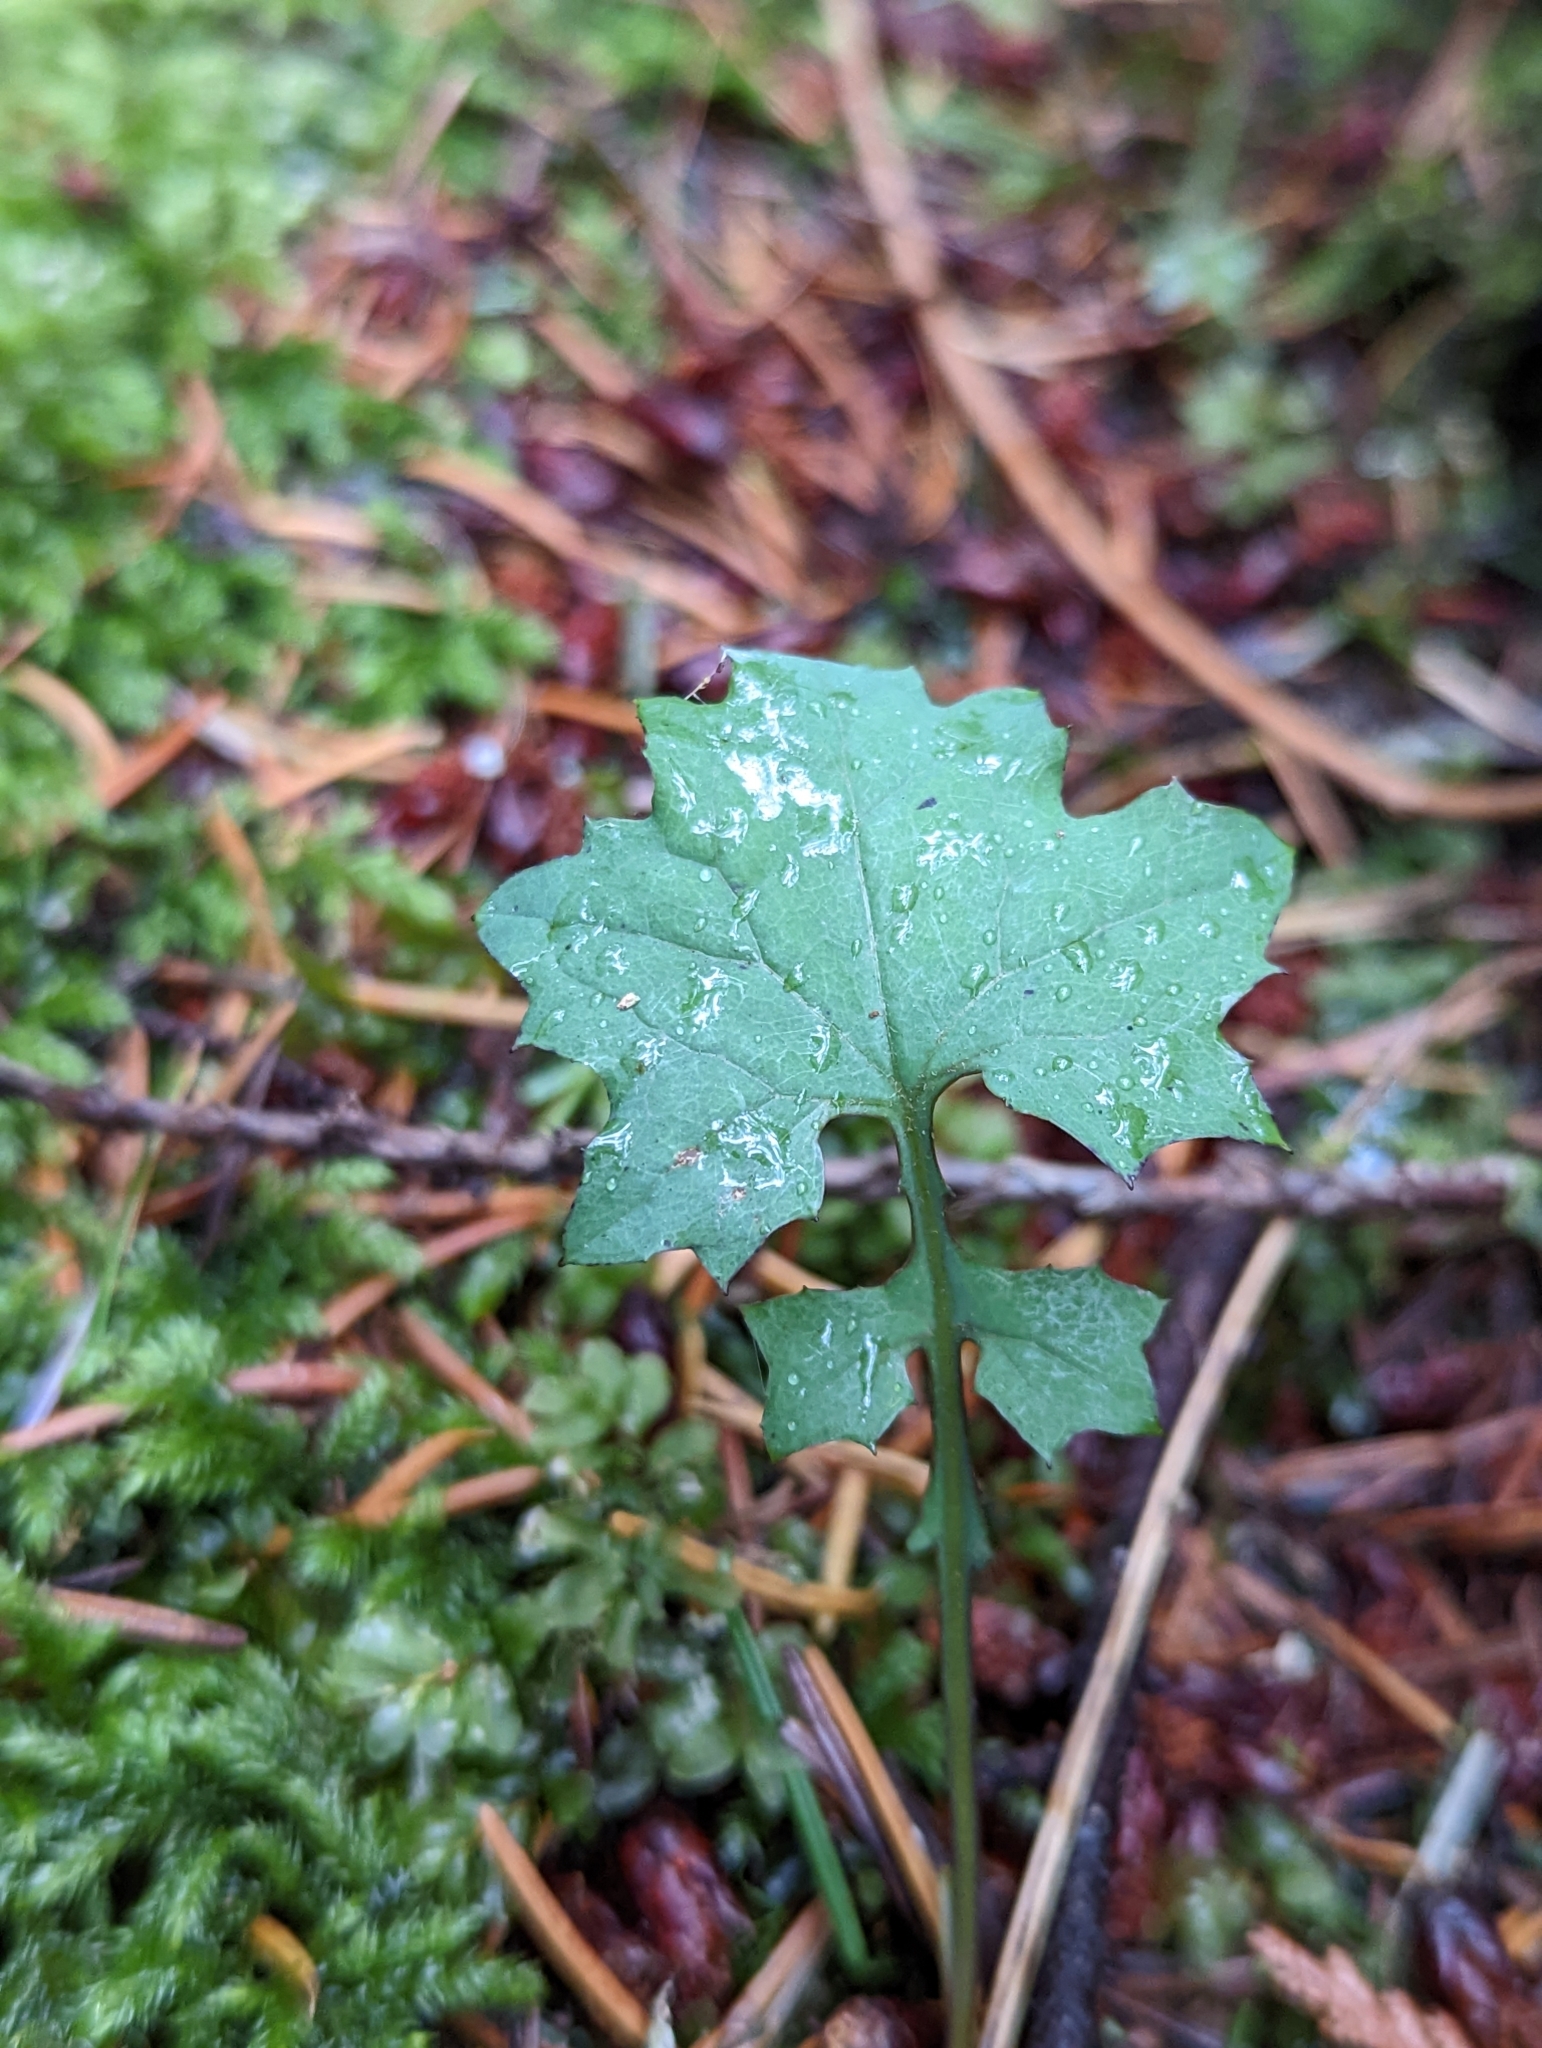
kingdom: Plantae
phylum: Tracheophyta
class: Magnoliopsida
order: Asterales
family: Asteraceae
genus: Mycelis
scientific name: Mycelis muralis
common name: Wall lettuce
